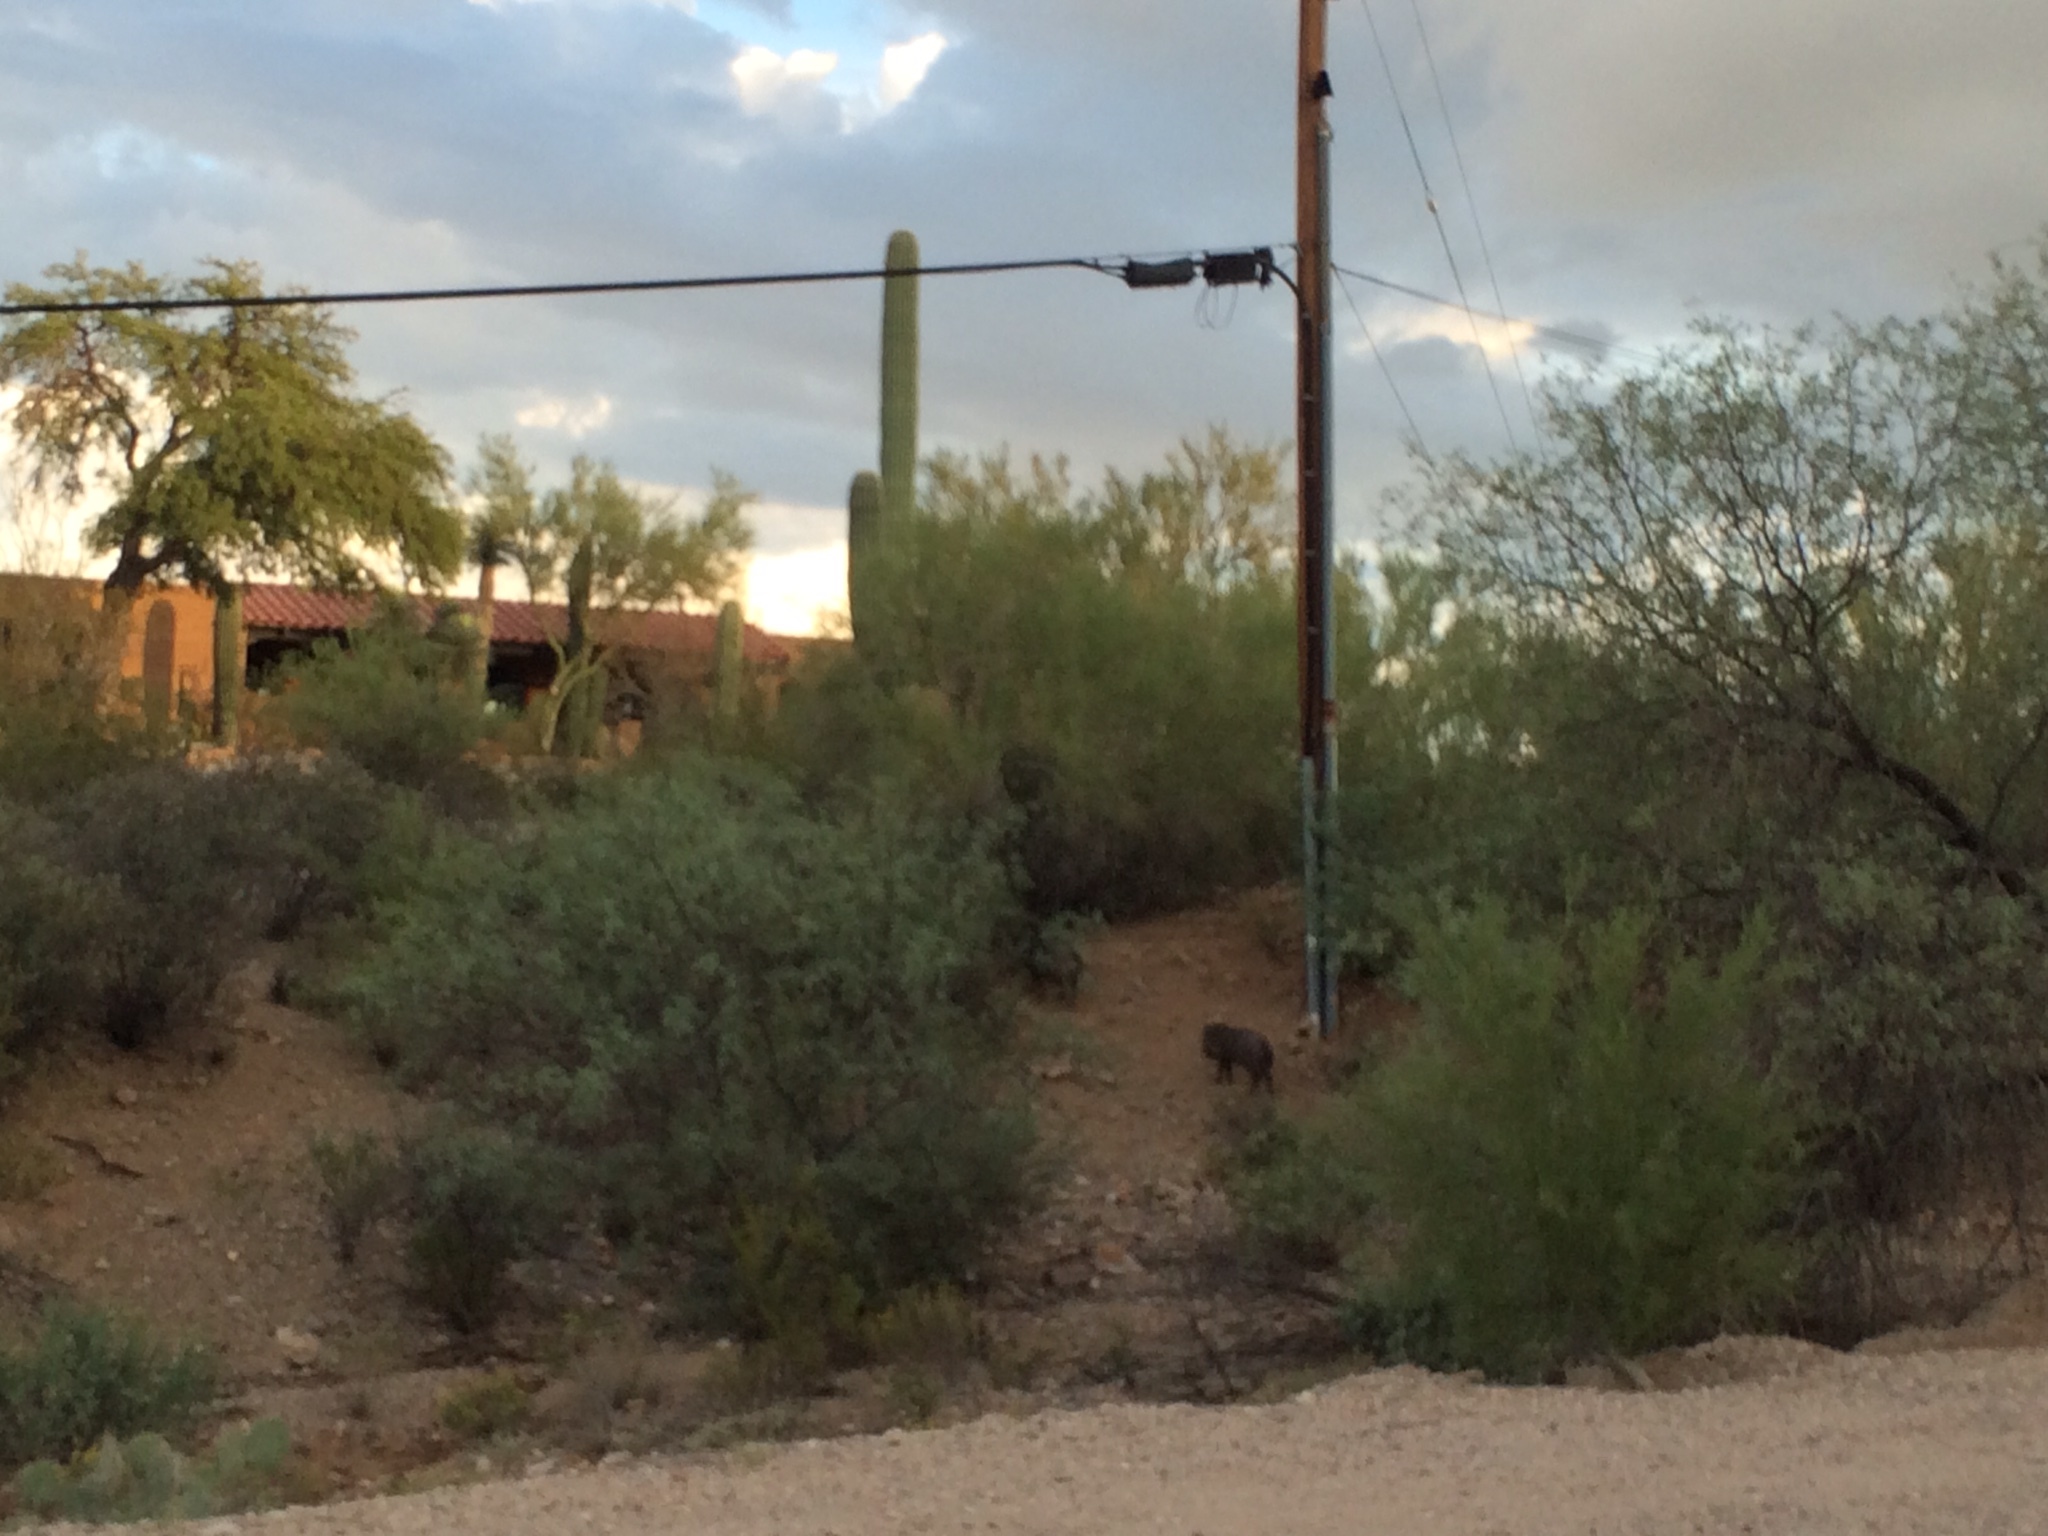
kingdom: Animalia
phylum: Chordata
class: Mammalia
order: Artiodactyla
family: Tayassuidae
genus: Pecari
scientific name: Pecari tajacu
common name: Collared peccary
